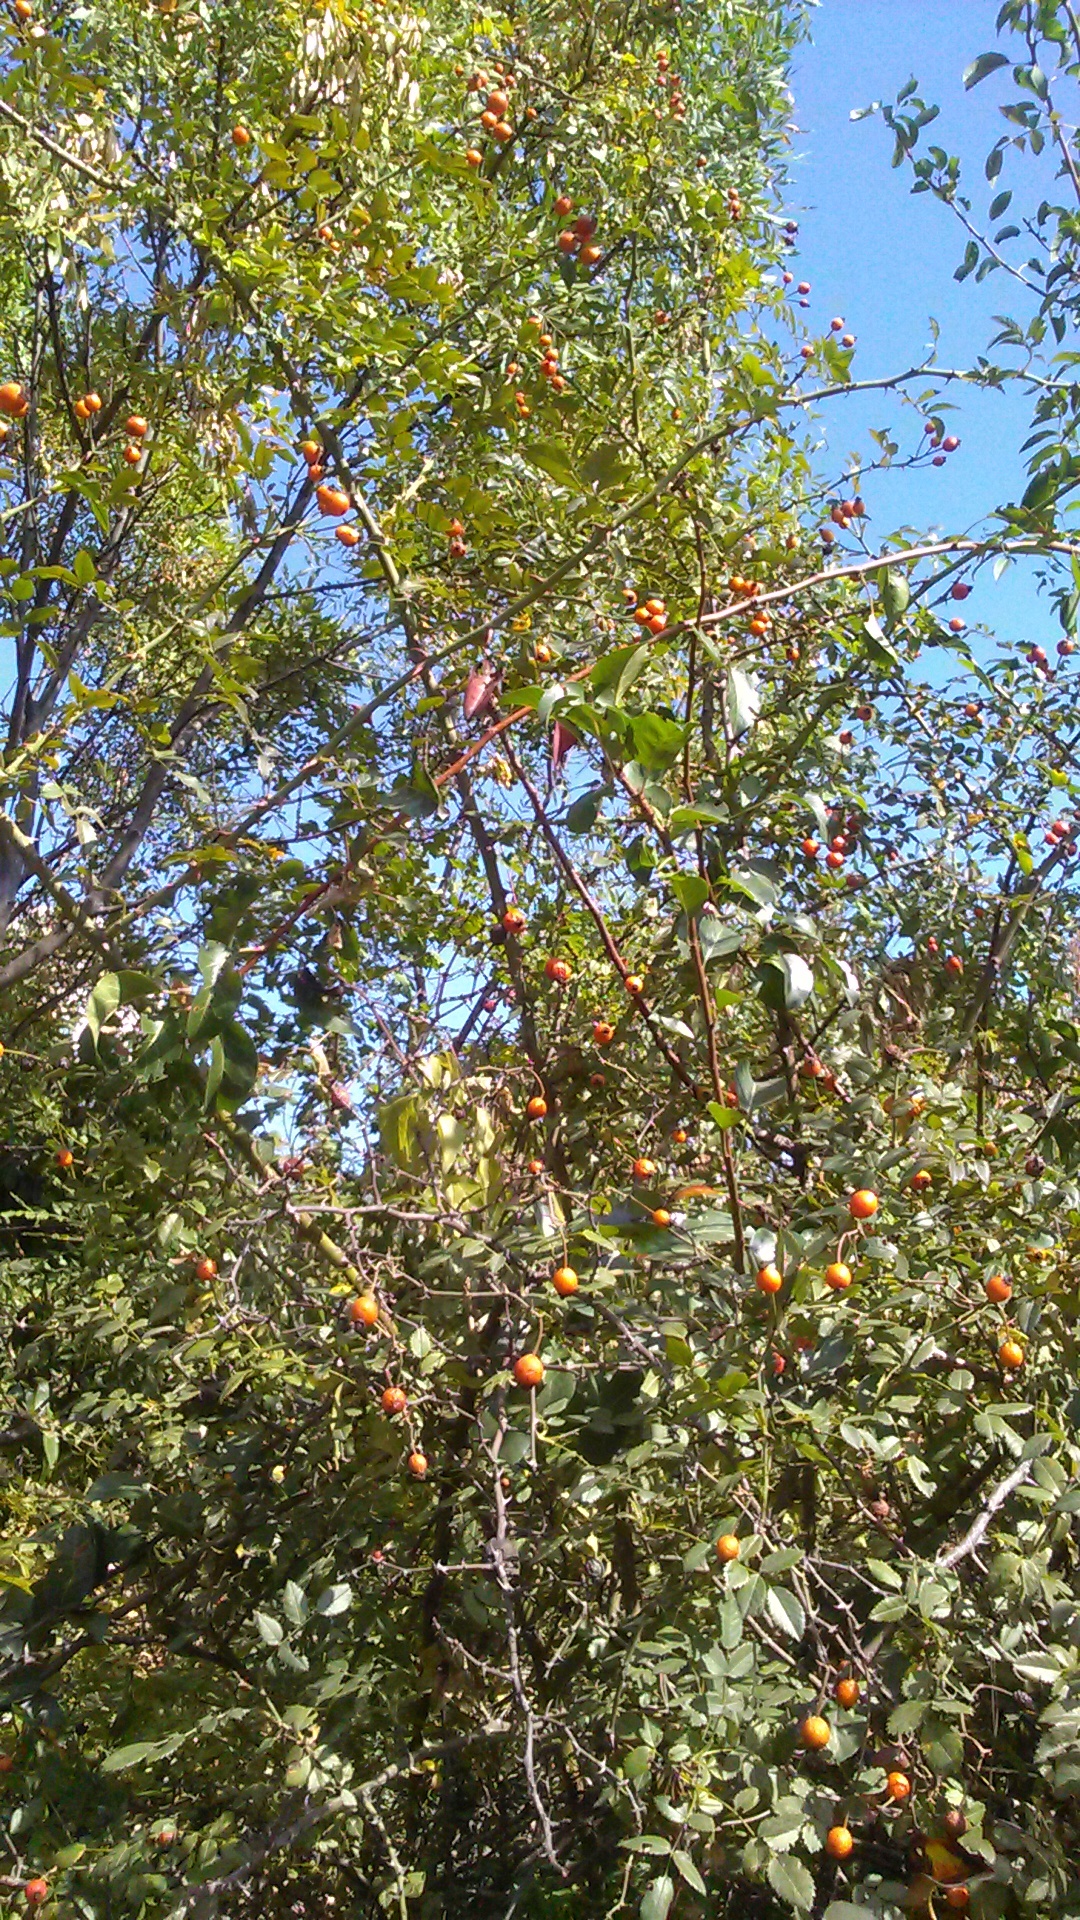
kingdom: Plantae
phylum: Tracheophyta
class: Magnoliopsida
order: Rosales
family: Rosaceae
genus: Rosa
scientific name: Rosa
